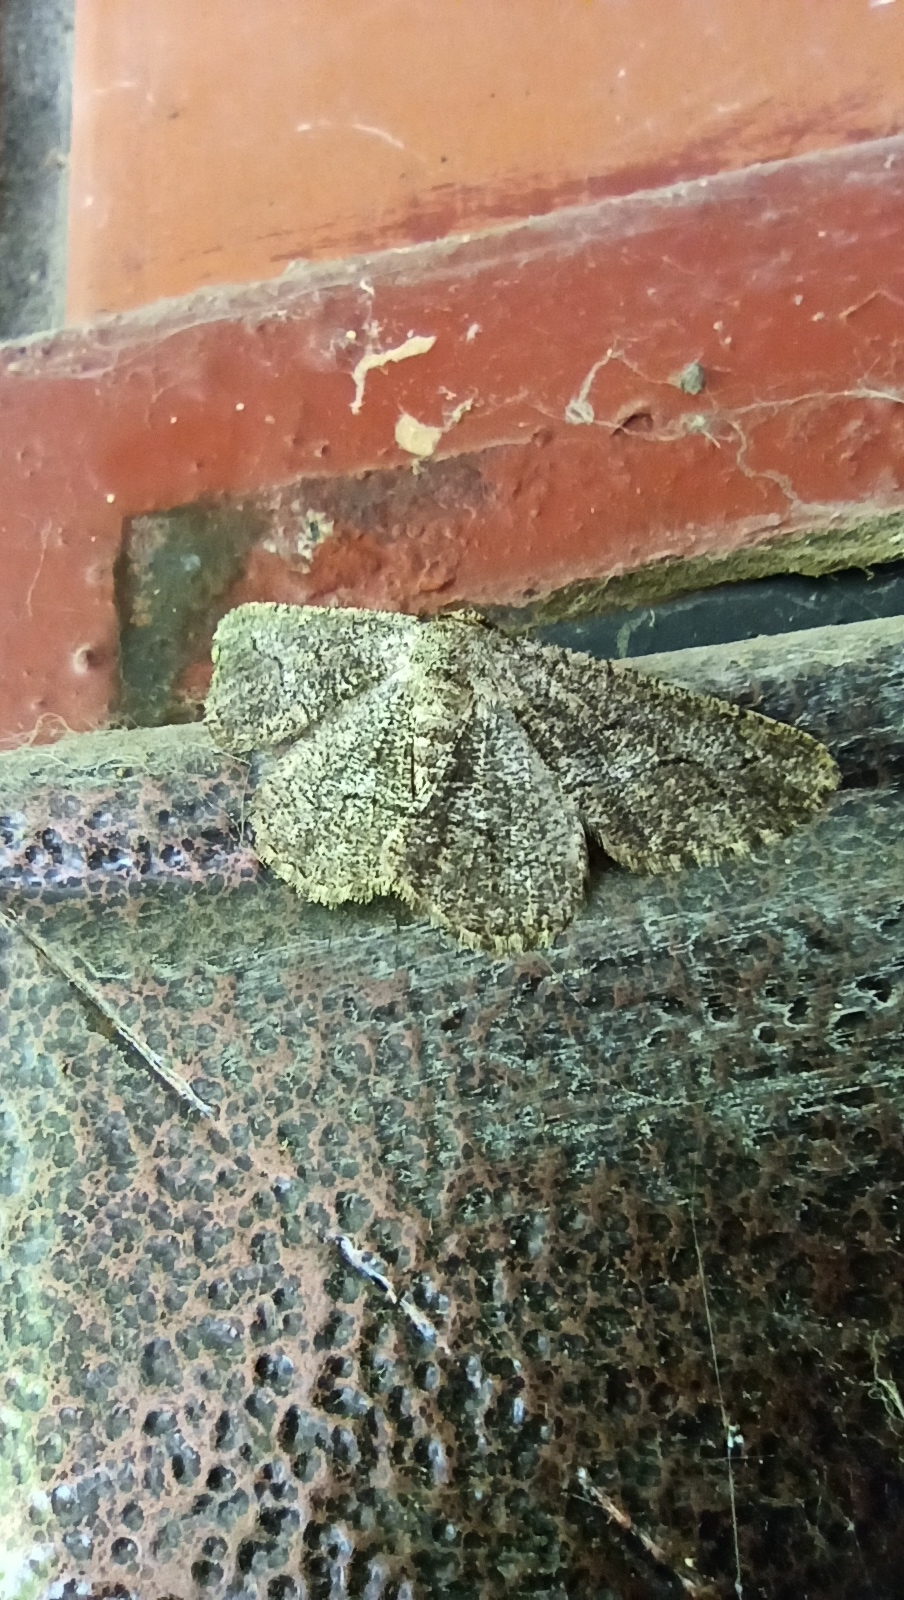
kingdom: Animalia
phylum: Arthropoda
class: Insecta
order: Lepidoptera
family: Geometridae
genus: Synopsia
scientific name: Synopsia sociaria
